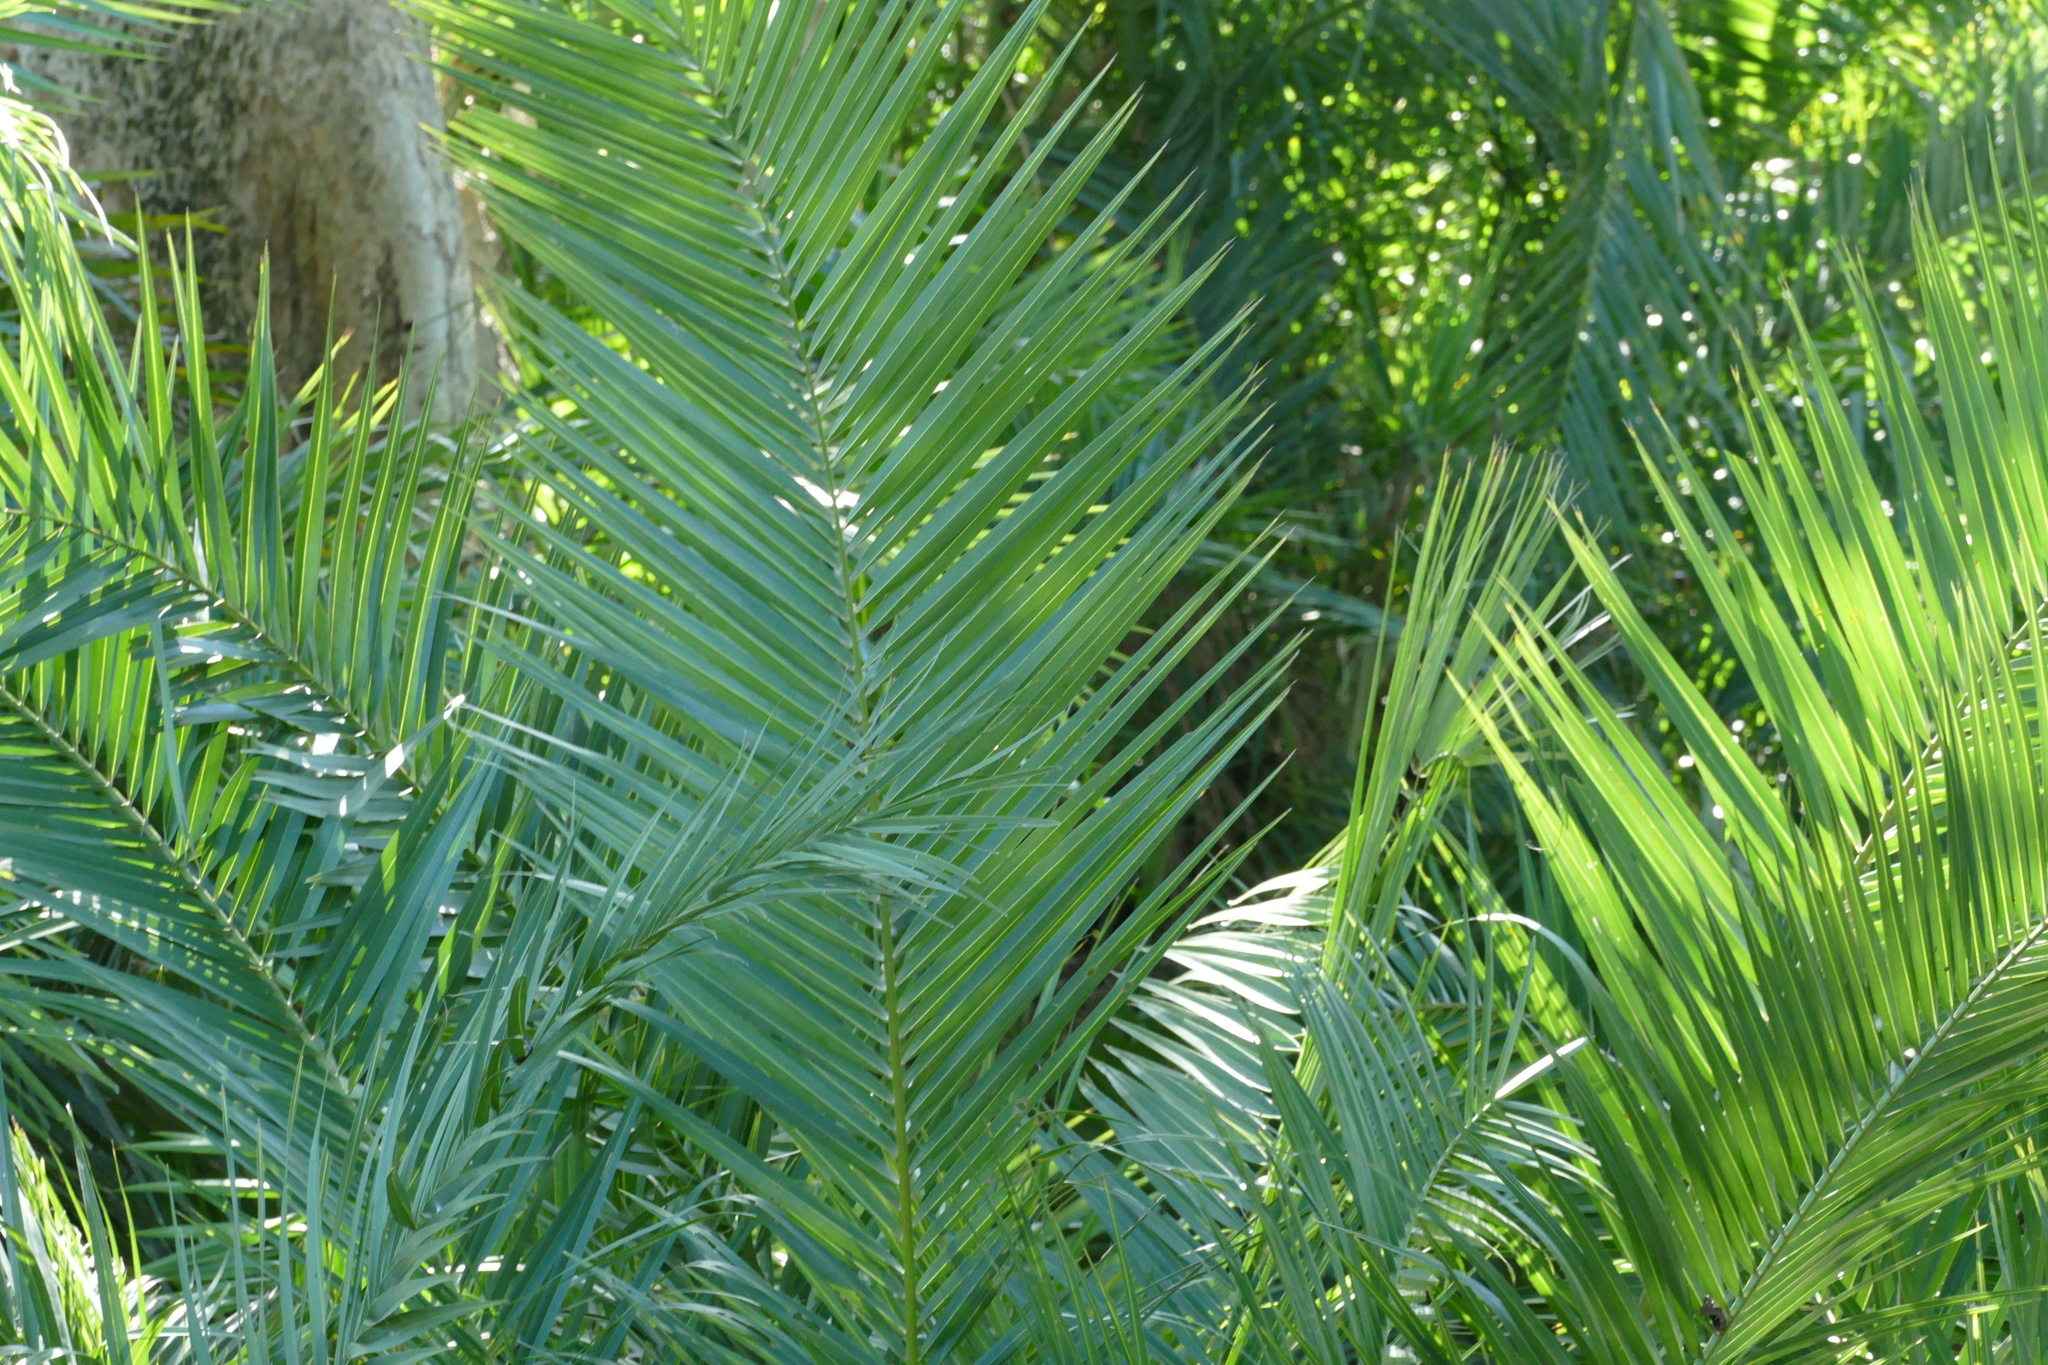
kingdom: Plantae
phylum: Tracheophyta
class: Liliopsida
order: Arecales
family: Arecaceae
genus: Phoenix
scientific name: Phoenix reclinata
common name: Senegal date palm
